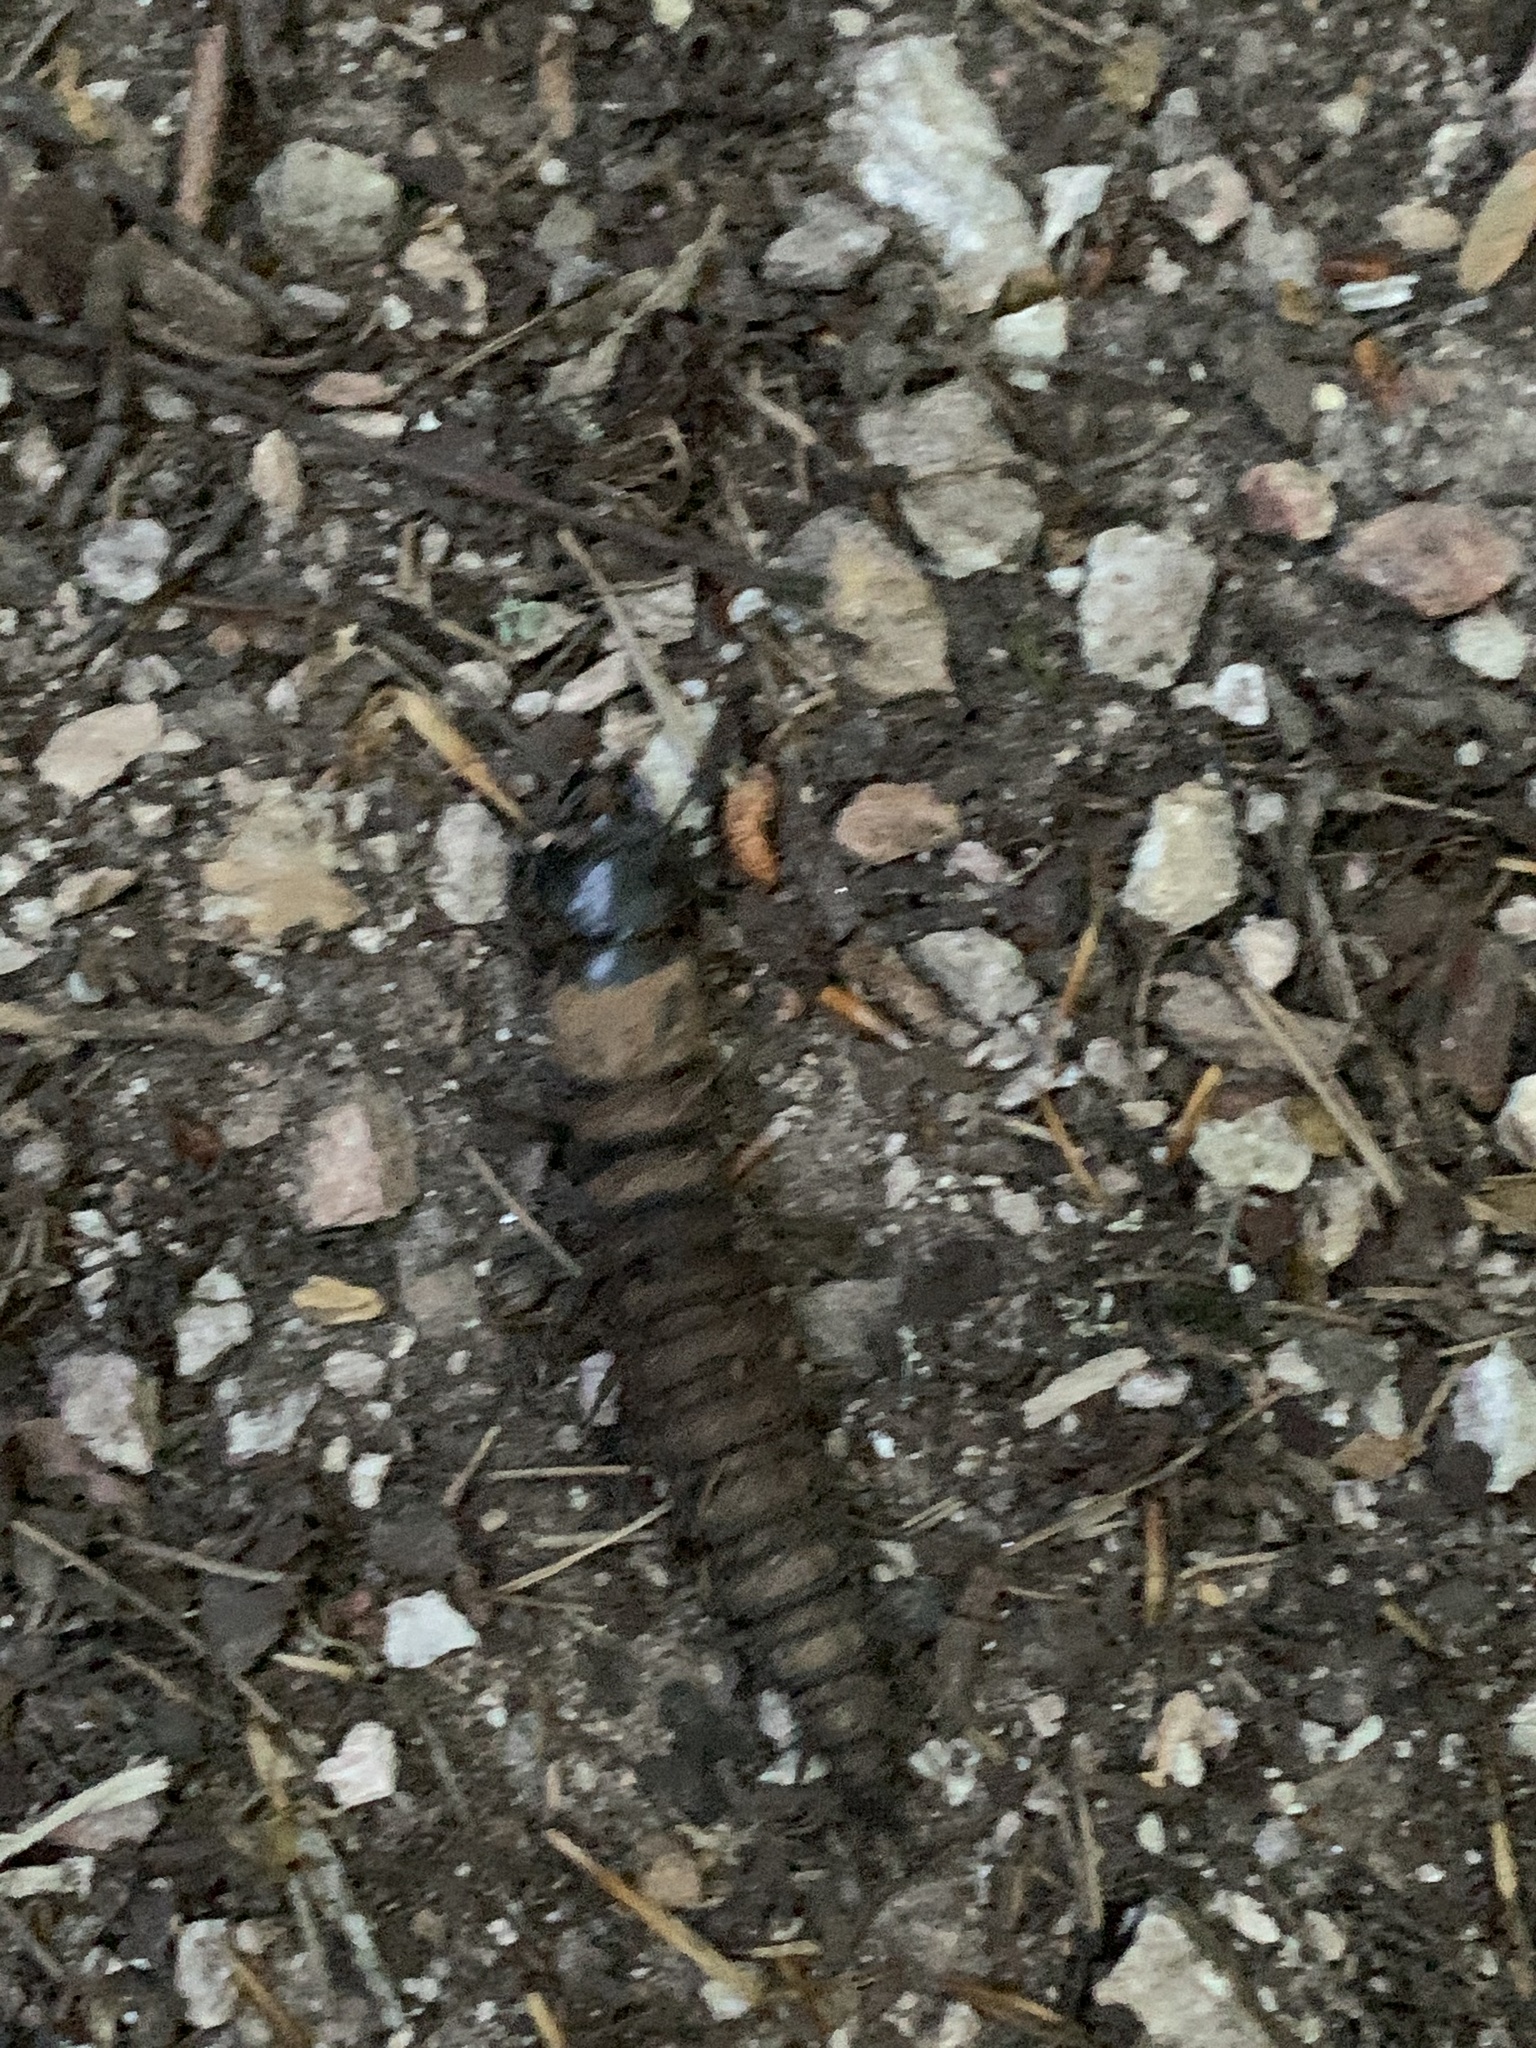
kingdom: Animalia
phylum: Arthropoda
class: Insecta
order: Megaloptera
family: Corydalidae
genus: Corydalus
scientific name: Corydalus cornutus
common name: Dobsonfly
